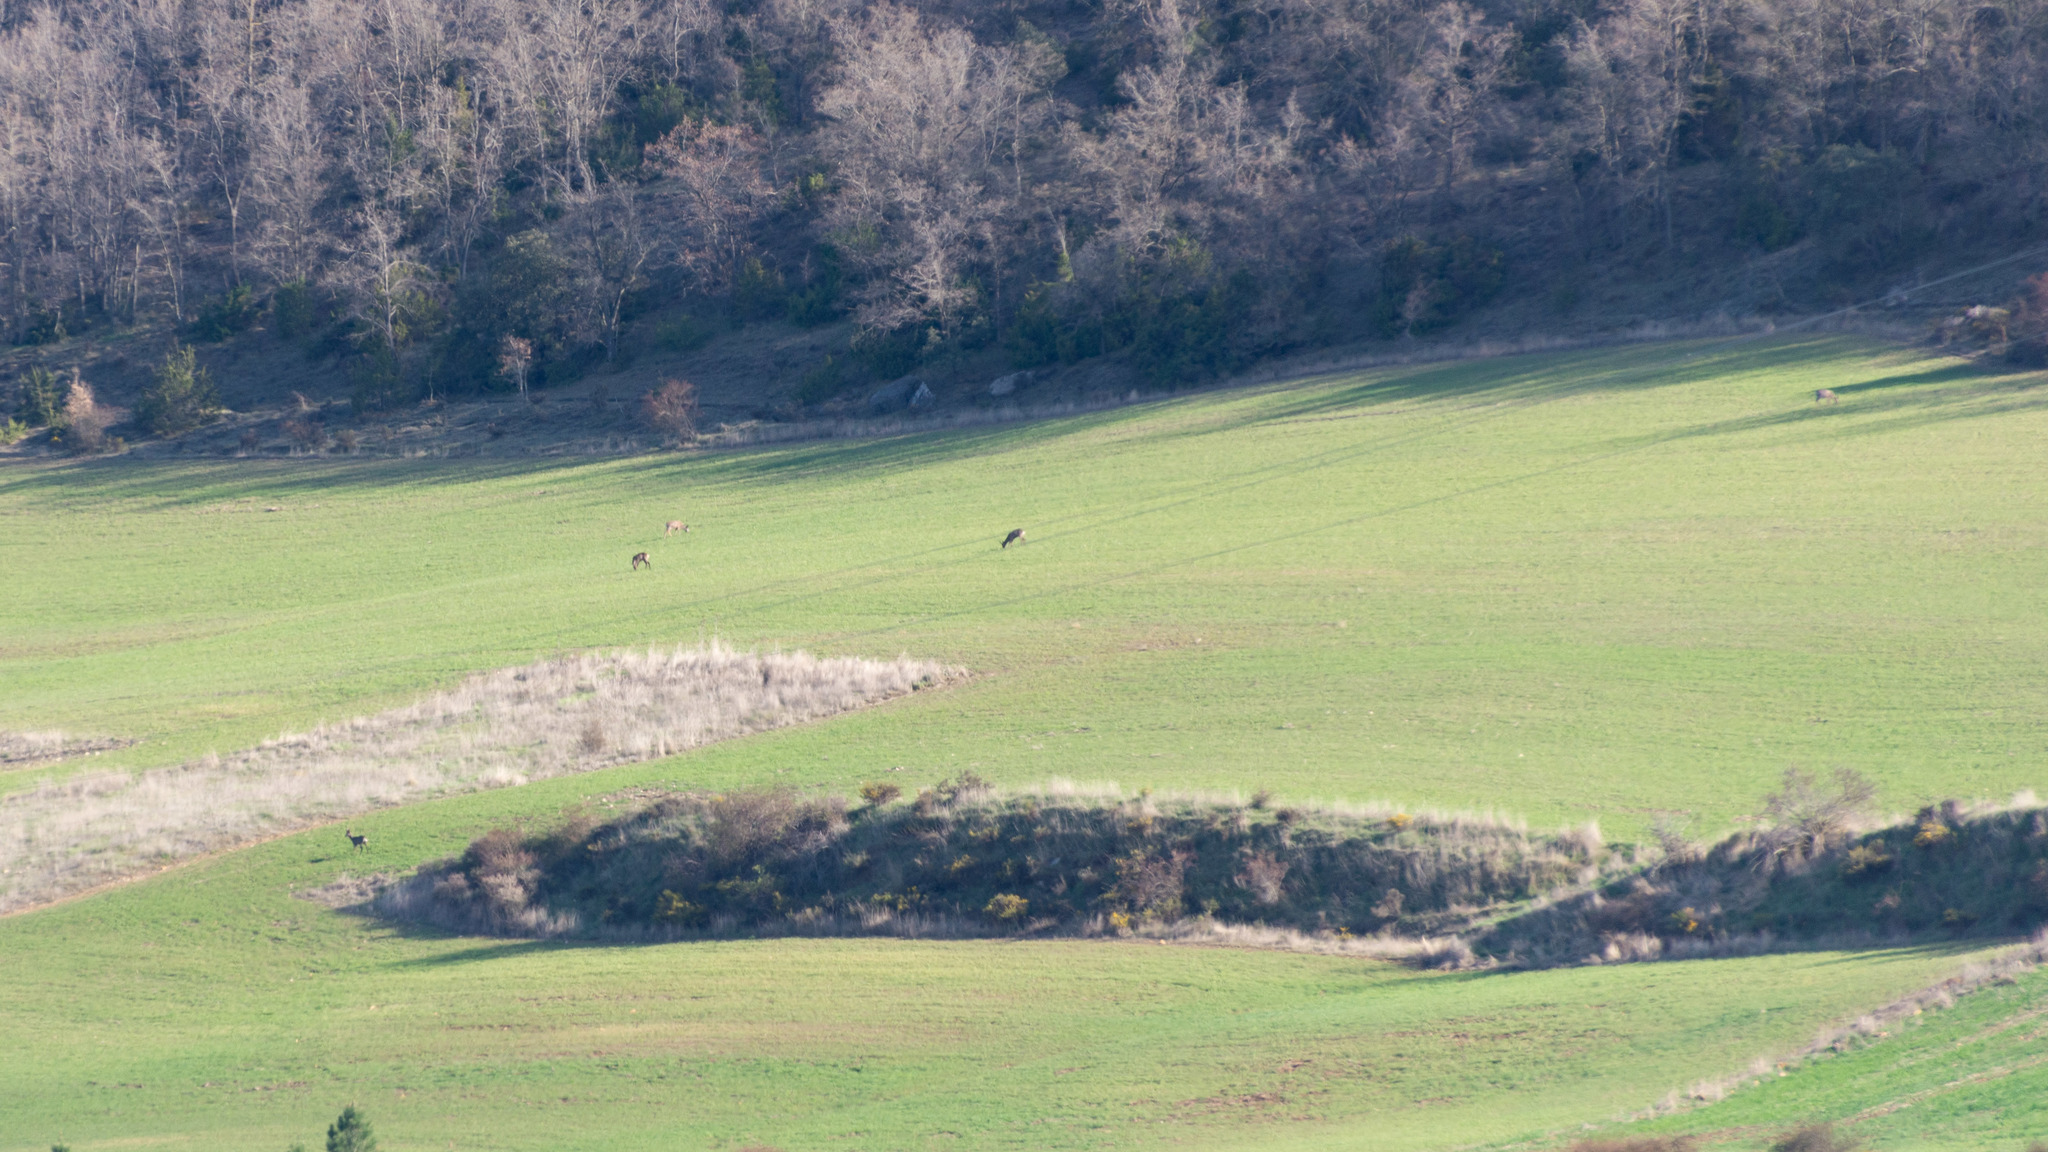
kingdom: Animalia
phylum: Chordata
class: Mammalia
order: Artiodactyla
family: Cervidae
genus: Capreolus
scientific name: Capreolus capreolus
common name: Western roe deer
